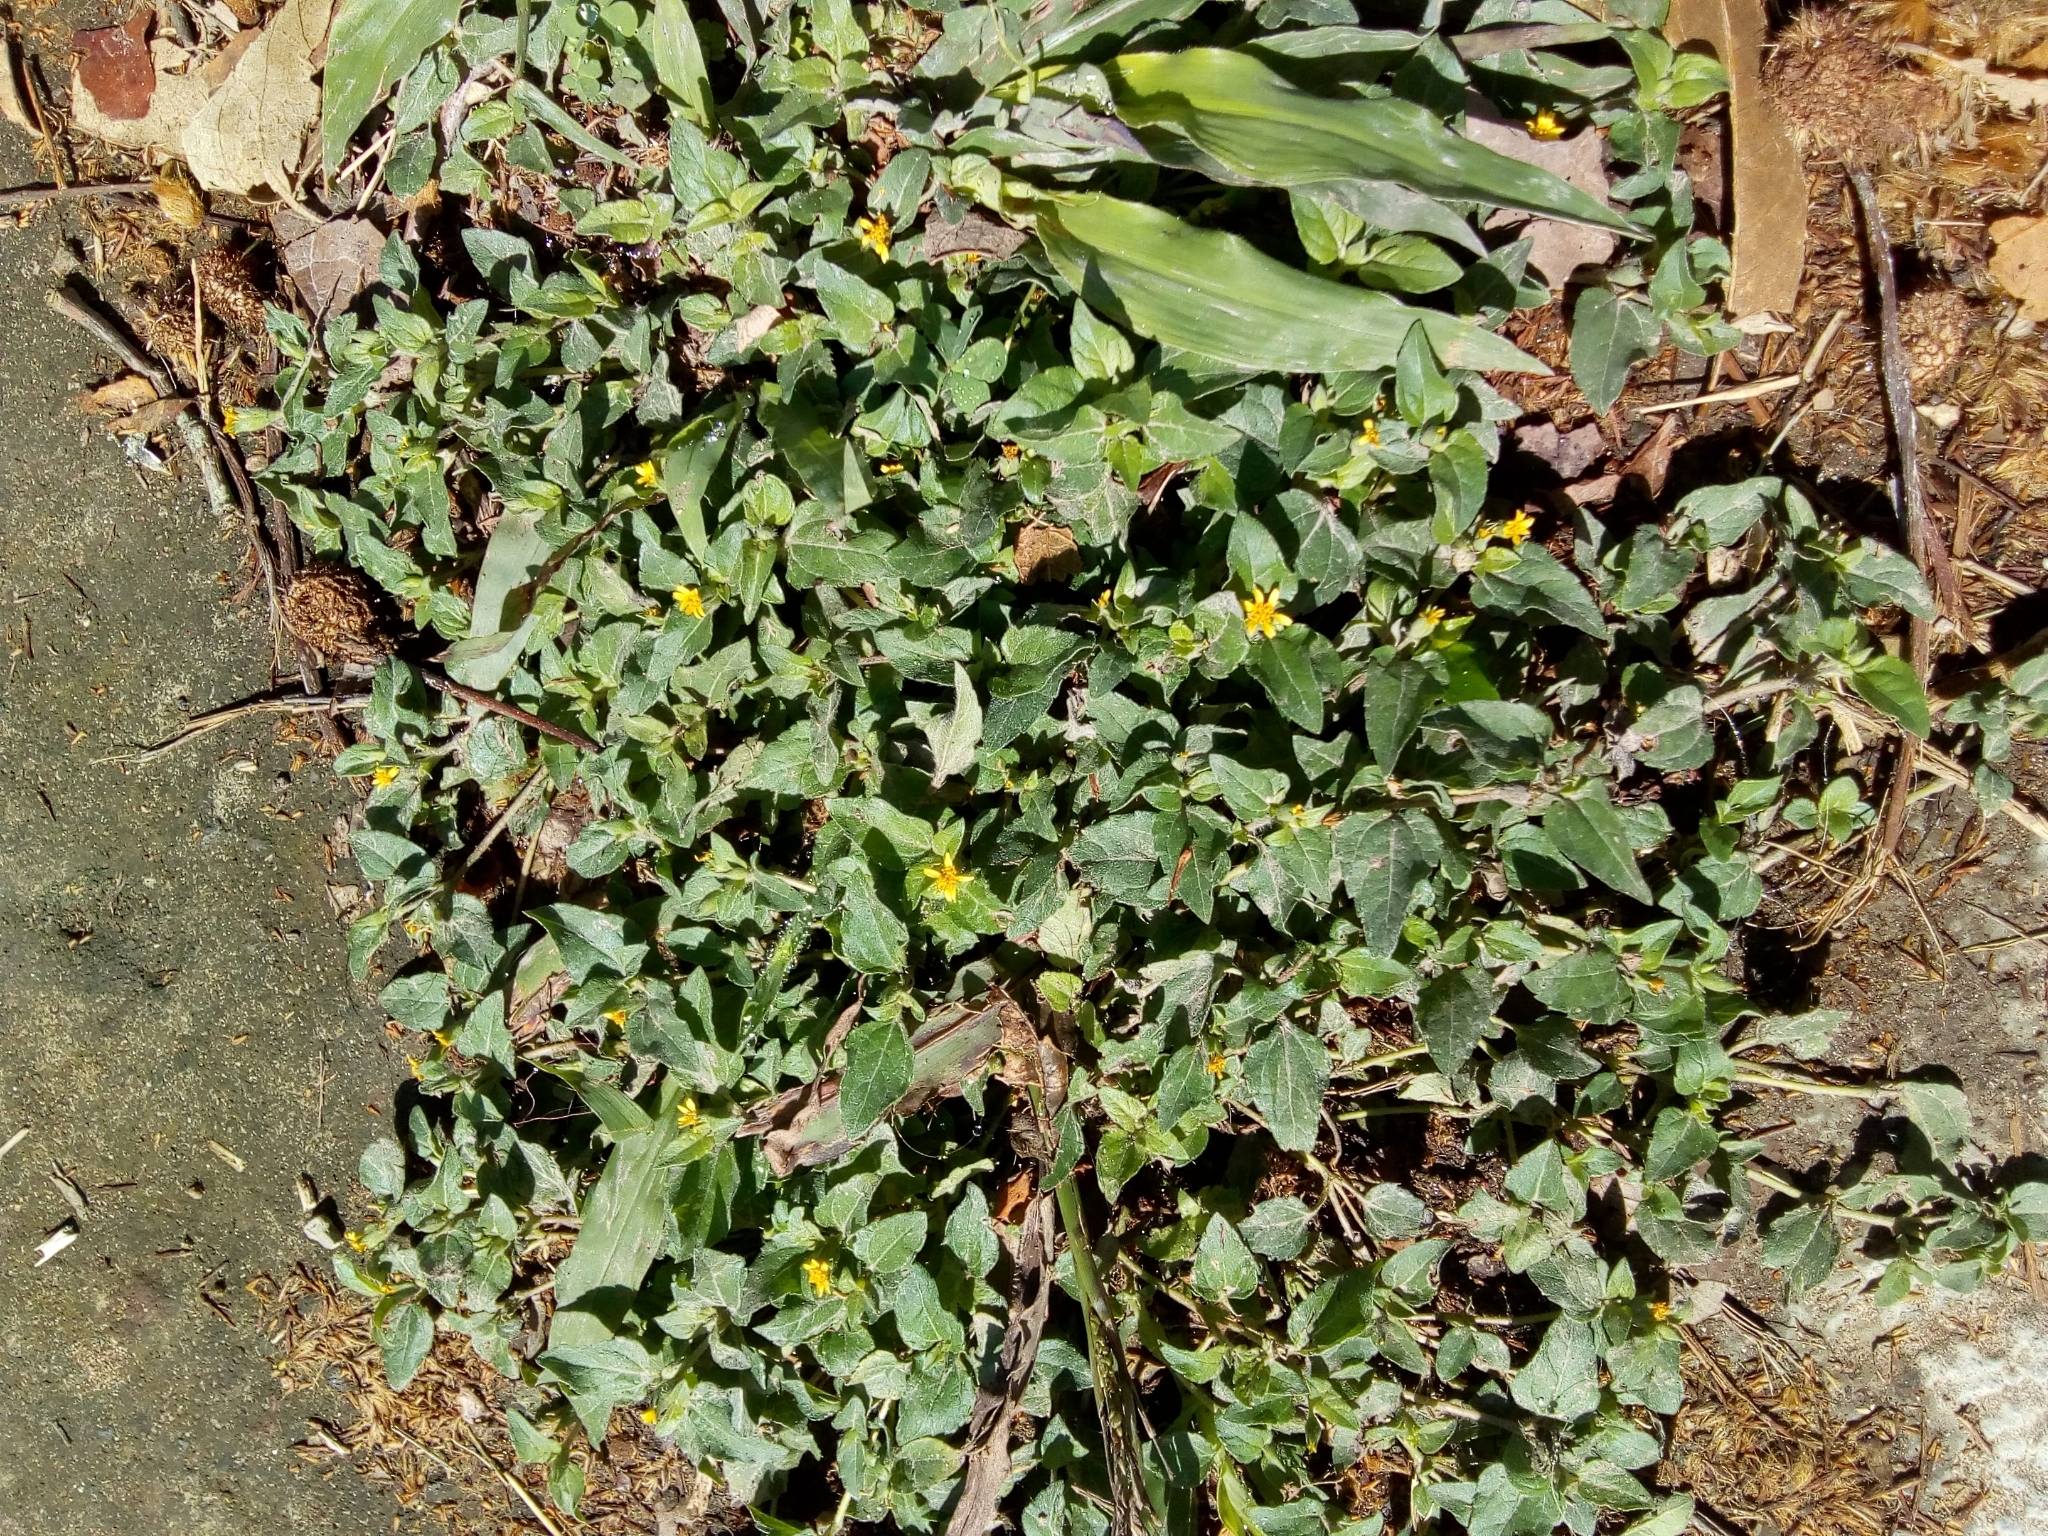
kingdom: Plantae
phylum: Tracheophyta
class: Magnoliopsida
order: Asterales
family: Asteraceae
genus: Calyptocarpus
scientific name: Calyptocarpus vialis
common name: Straggler daisy
